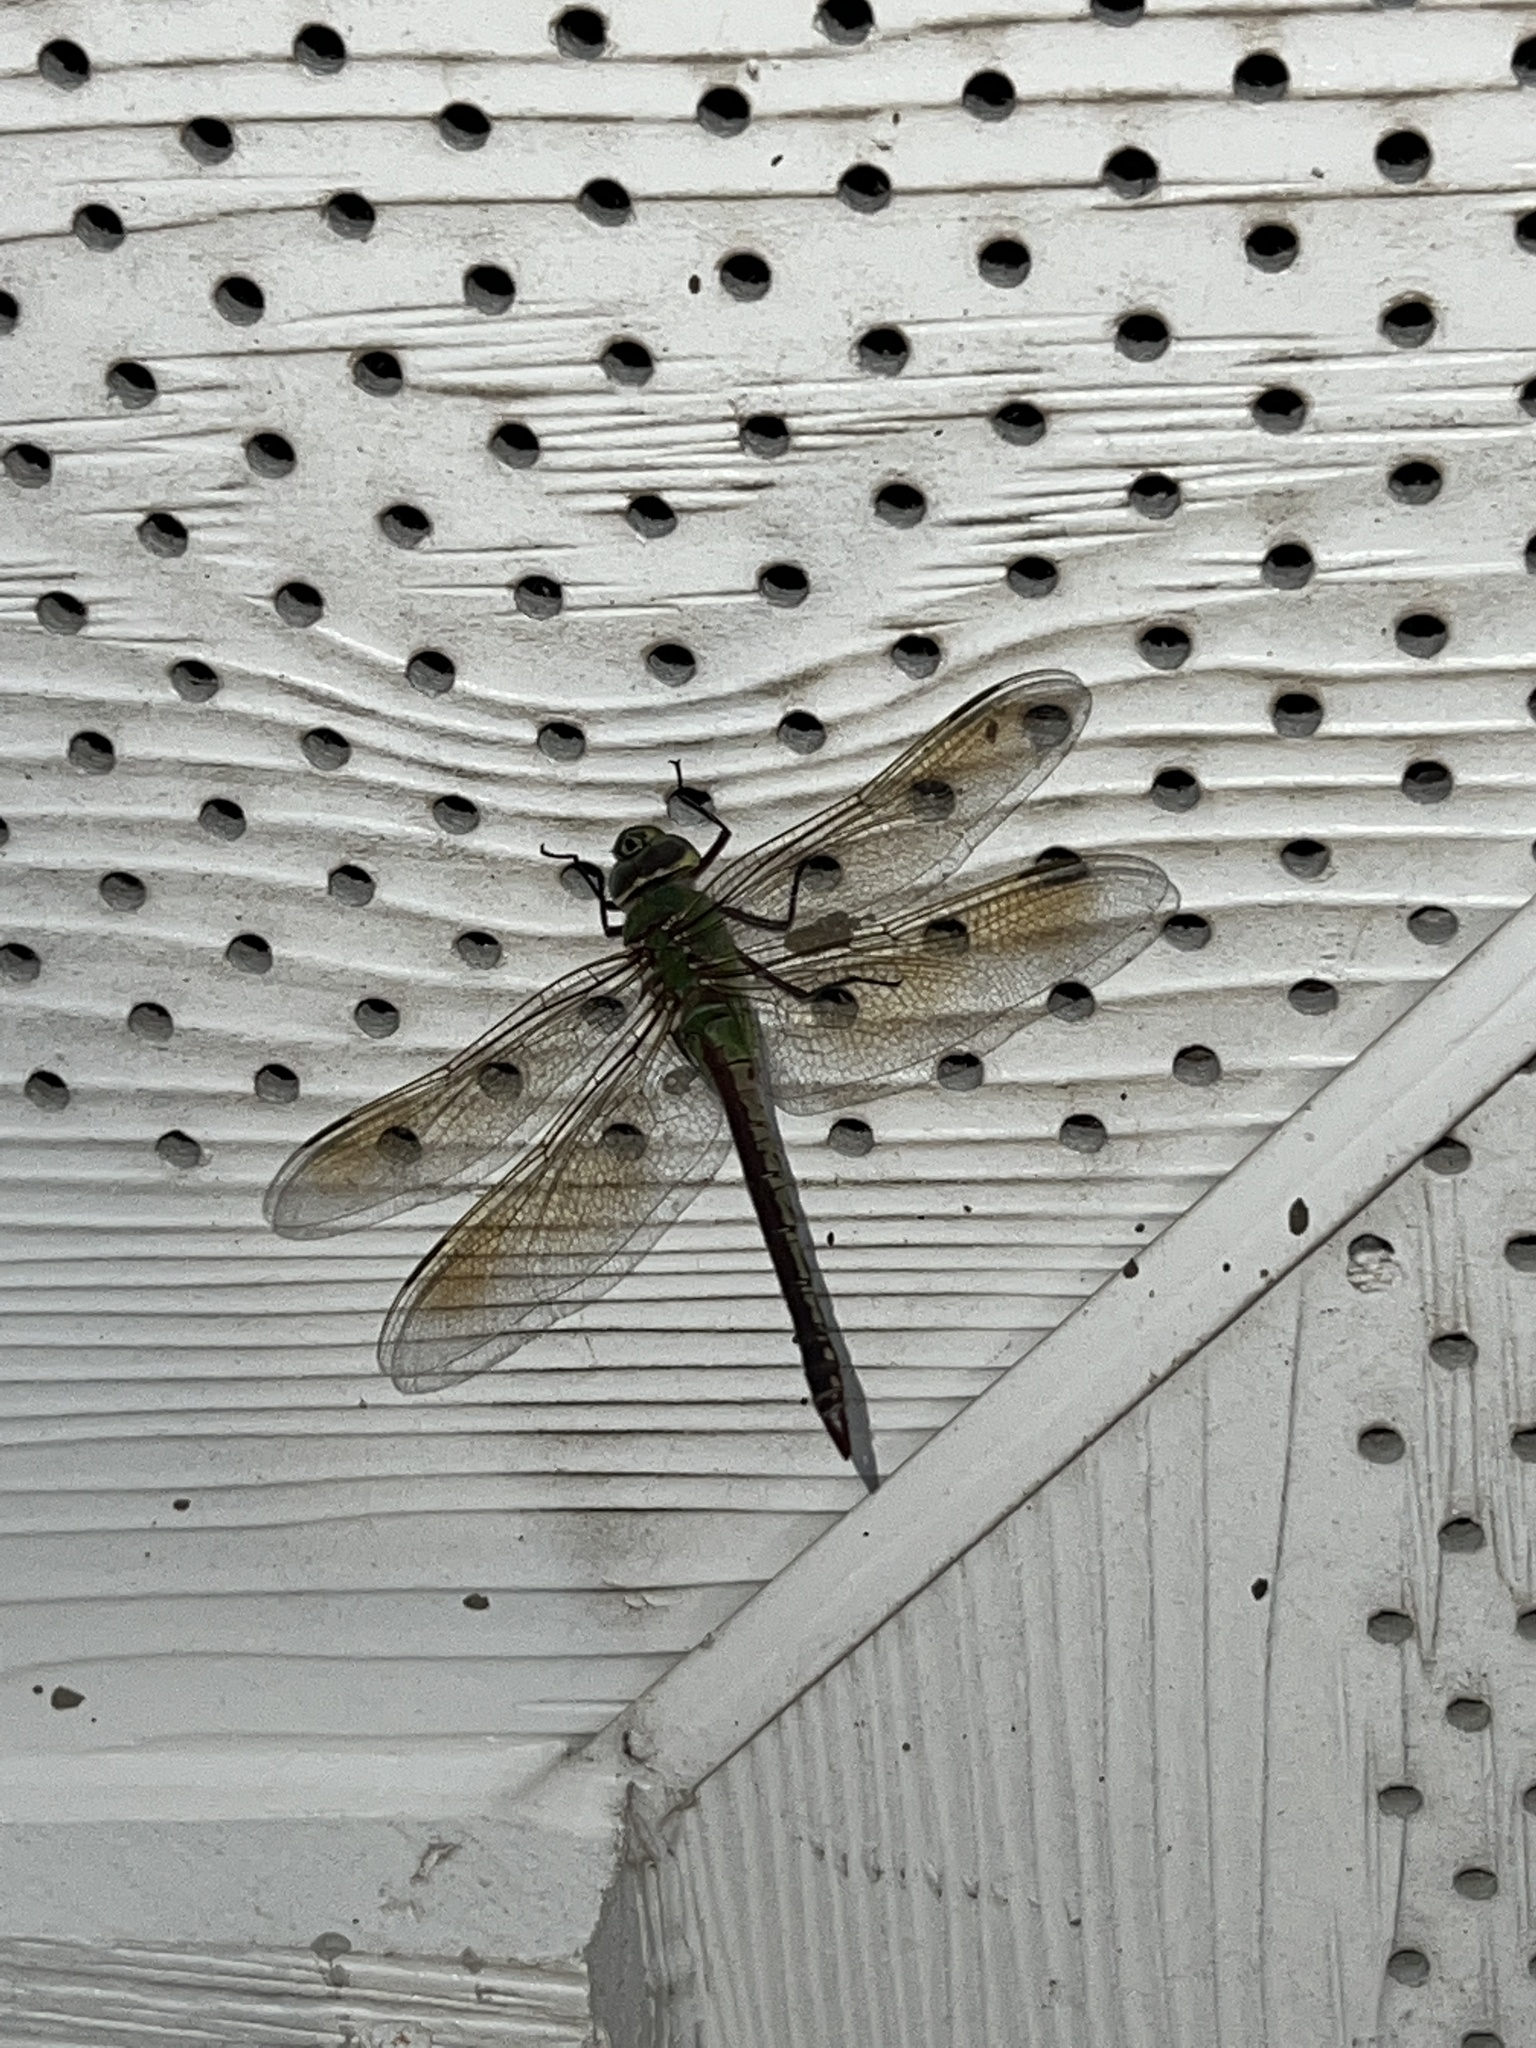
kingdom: Animalia
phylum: Arthropoda
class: Insecta
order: Odonata
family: Aeshnidae
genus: Anax
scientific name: Anax junius
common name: Common green darner
